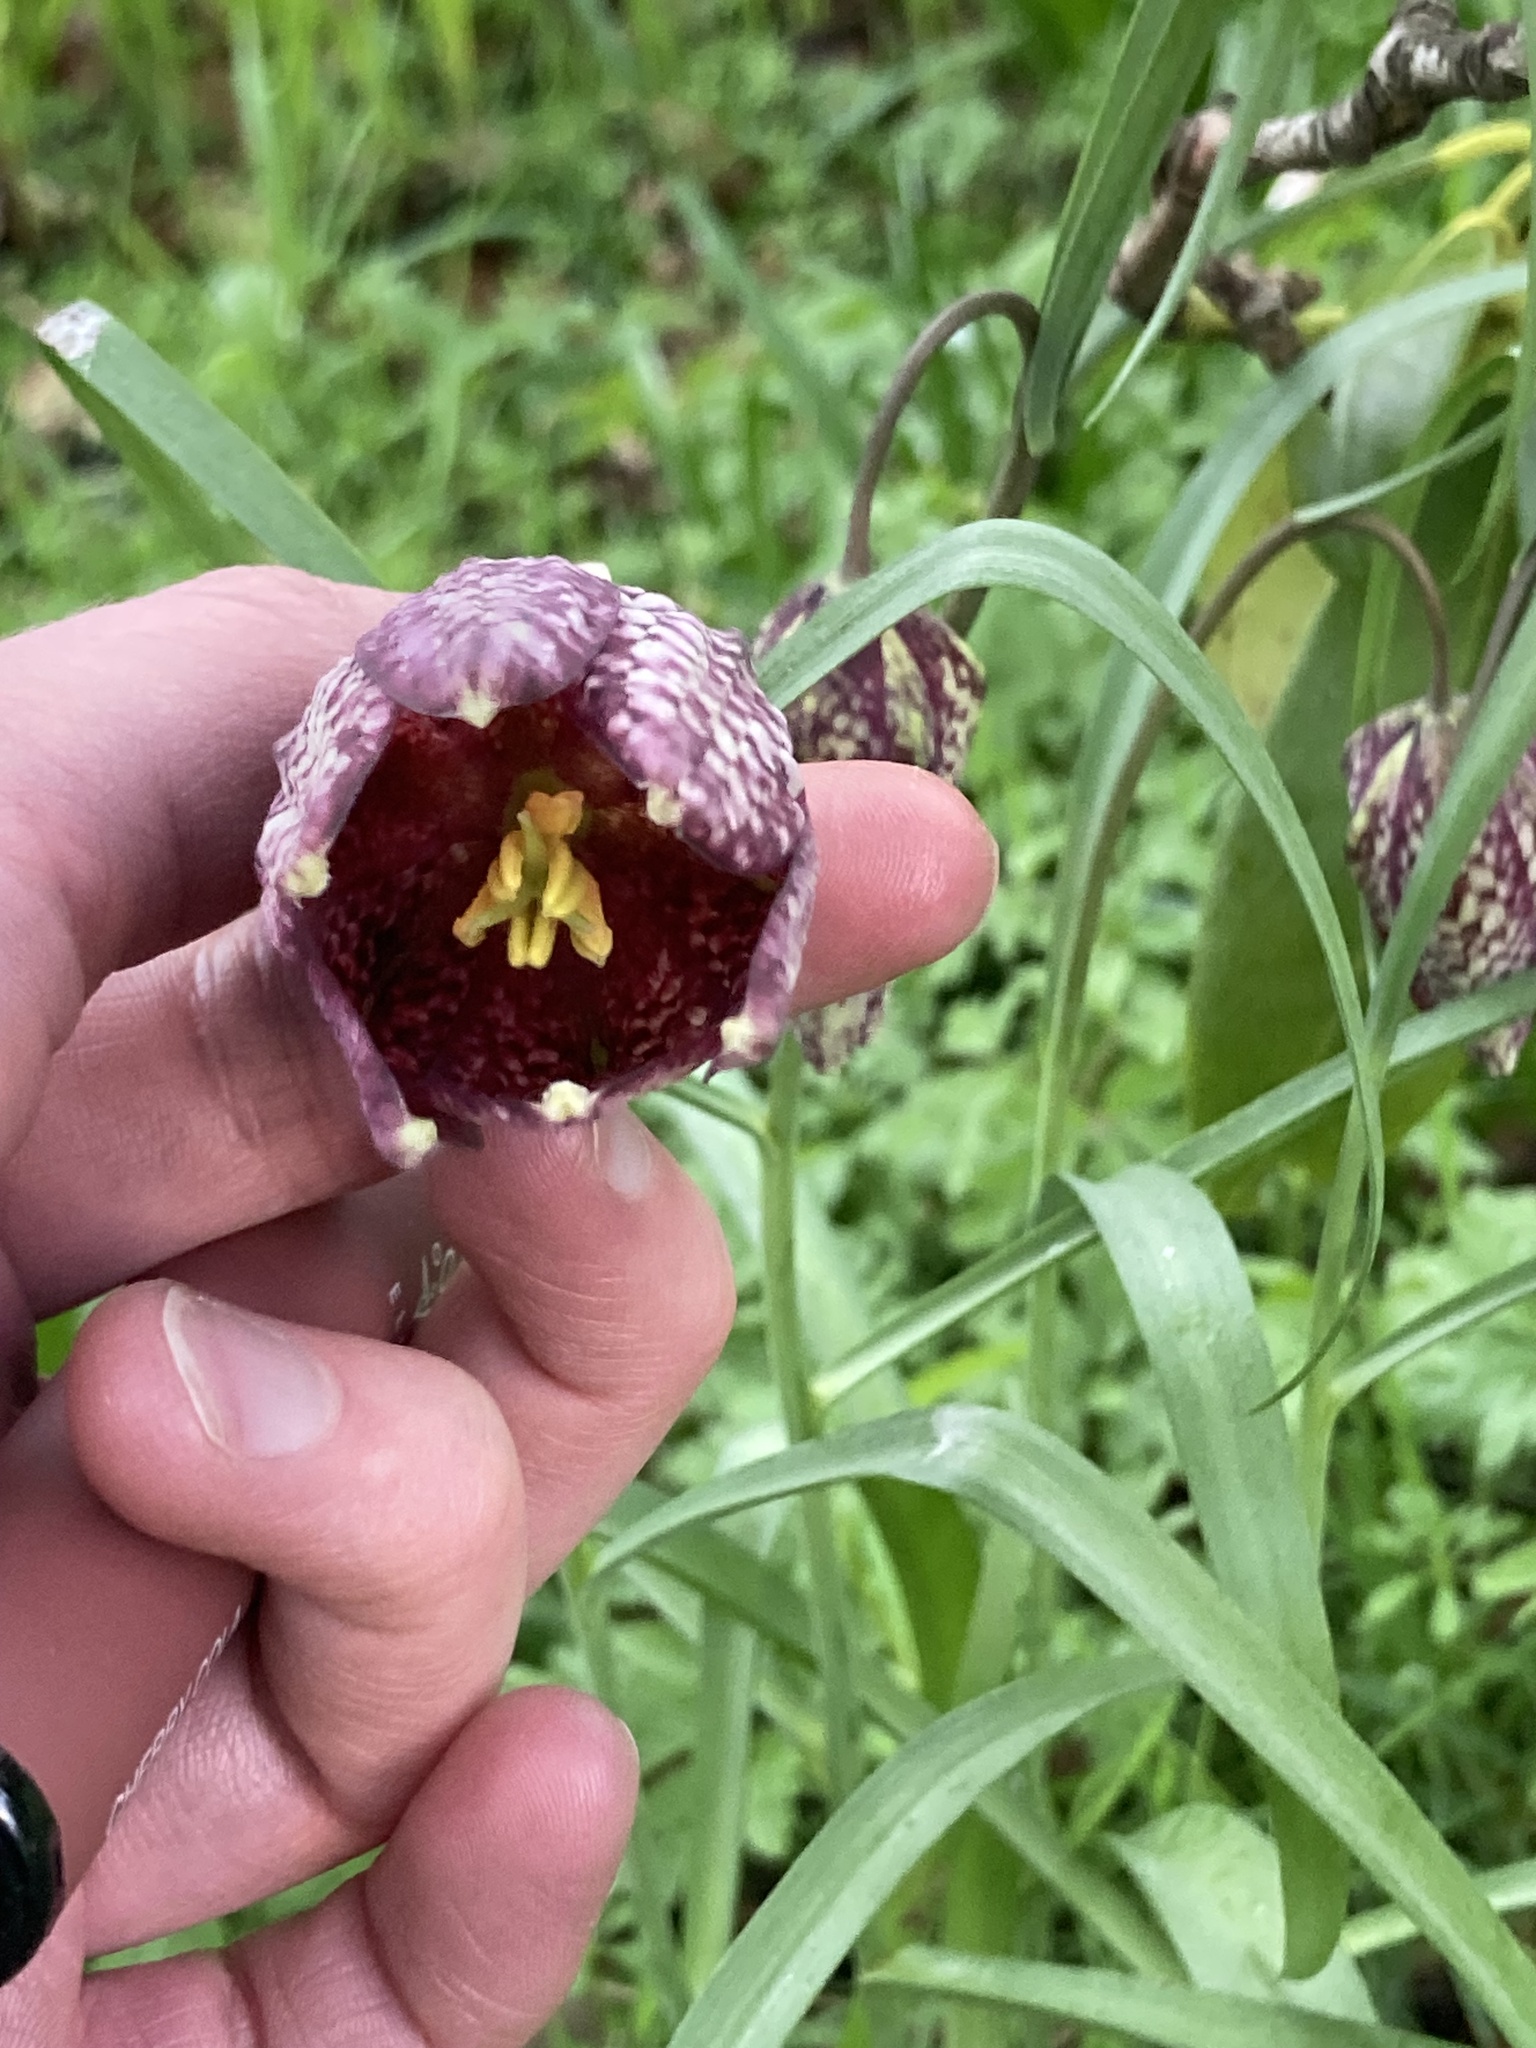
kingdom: Plantae
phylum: Tracheophyta
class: Liliopsida
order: Liliales
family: Liliaceae
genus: Fritillaria
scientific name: Fritillaria meleagris
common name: Fritillary
